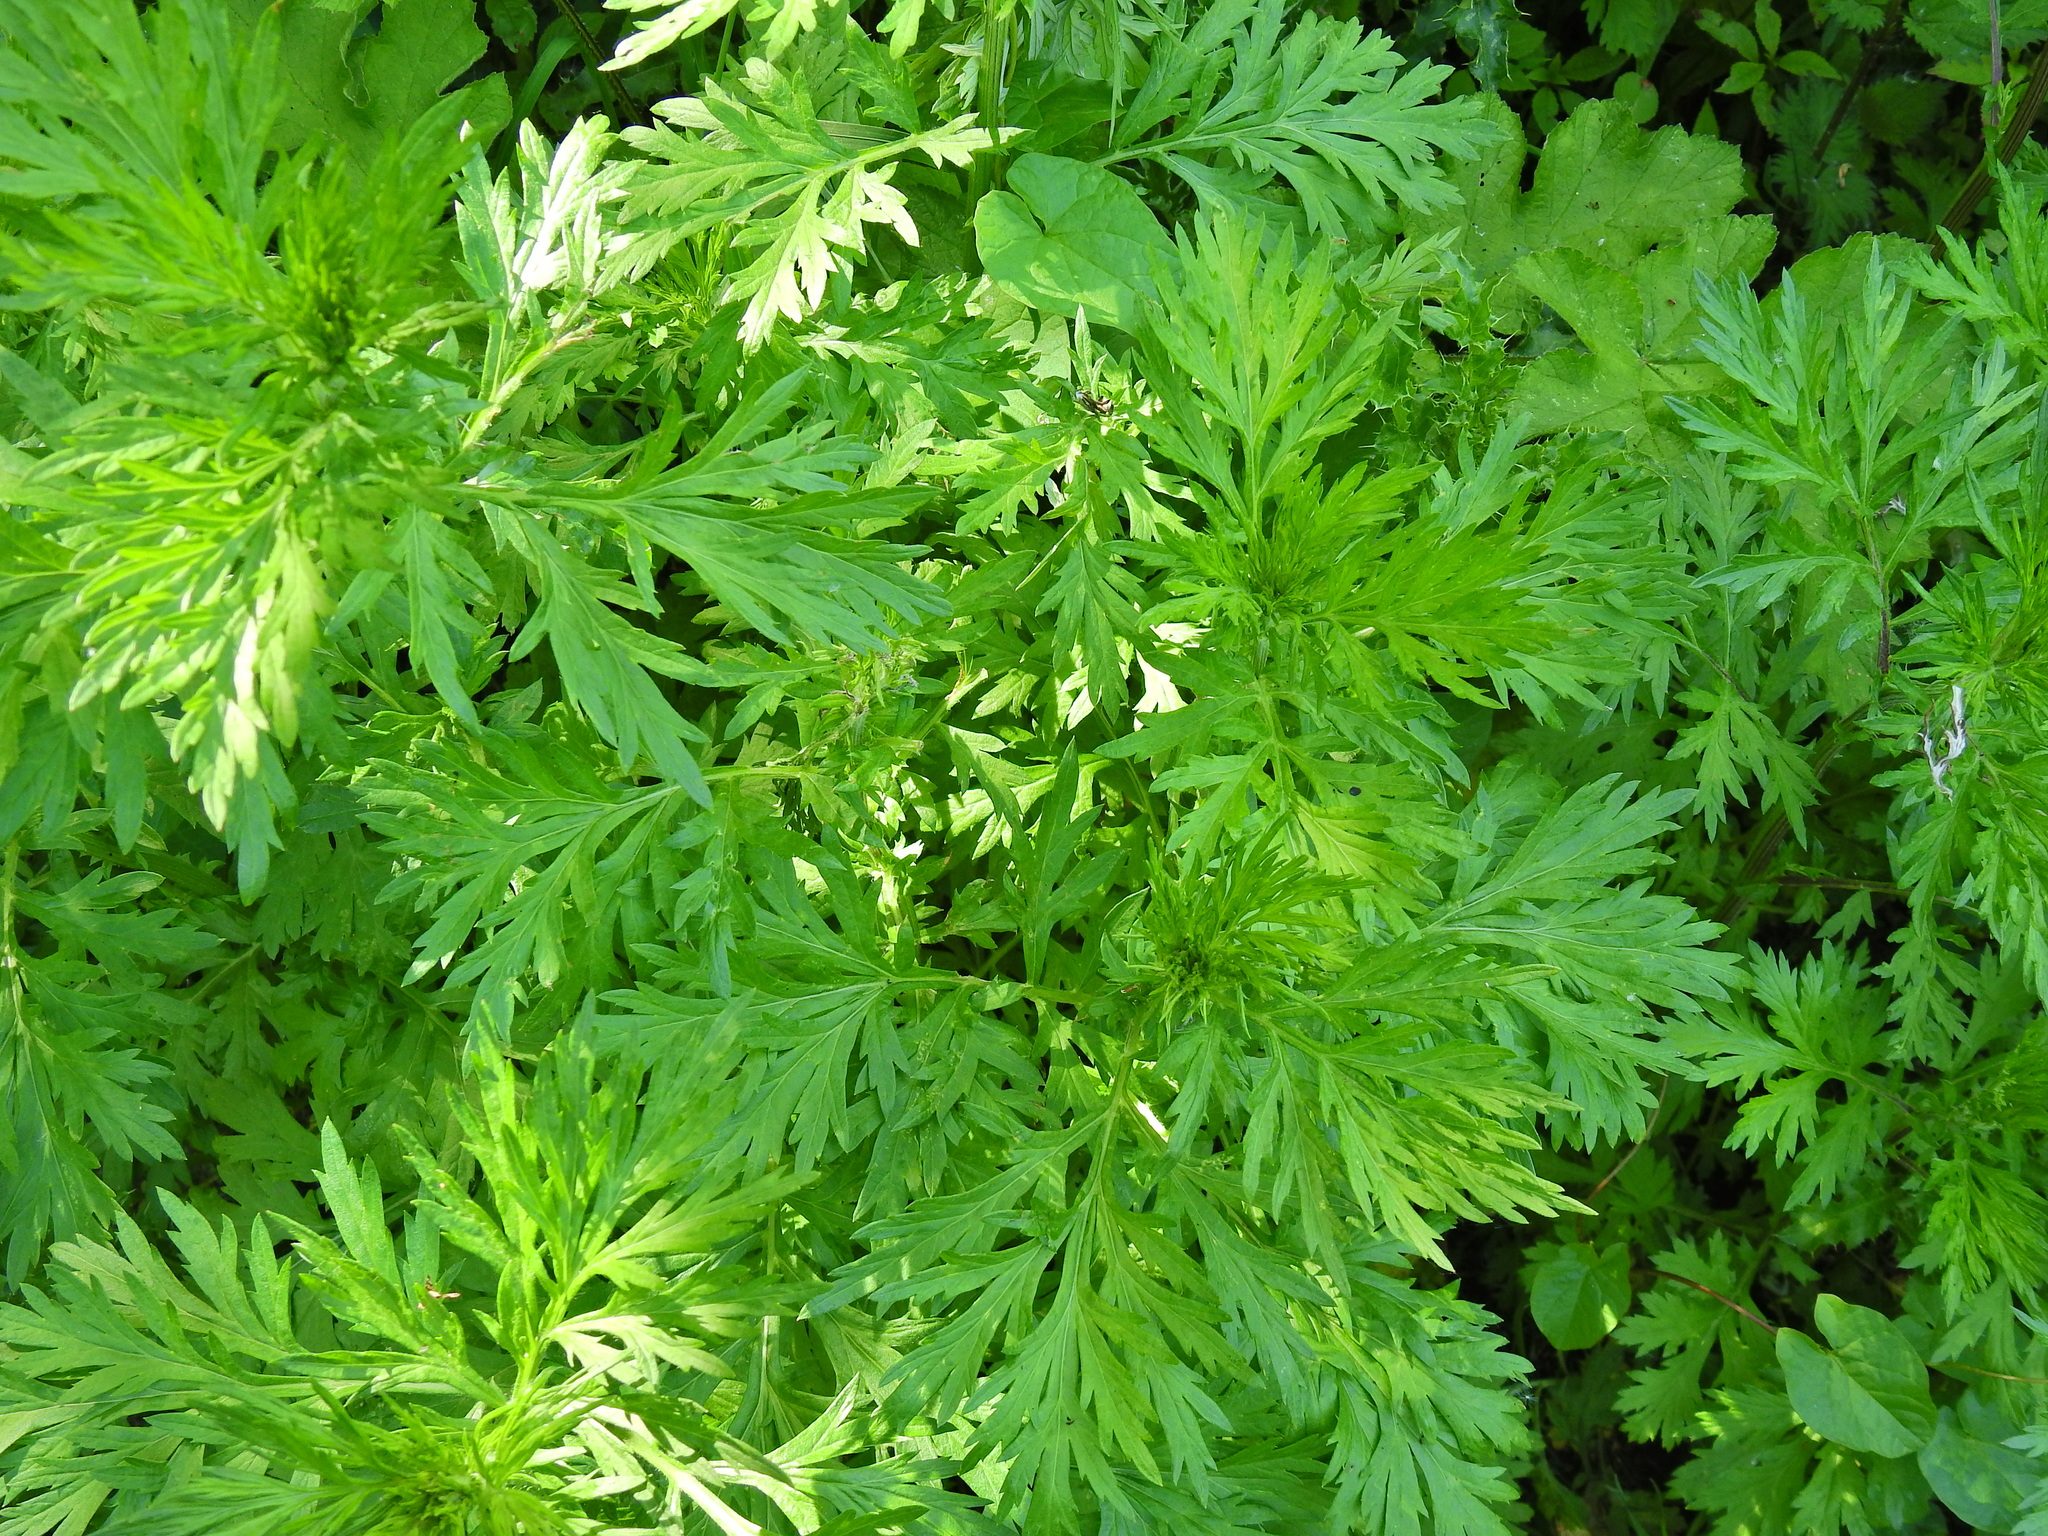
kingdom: Plantae
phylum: Tracheophyta
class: Magnoliopsida
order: Asterales
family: Asteraceae
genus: Artemisia
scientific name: Artemisia vulgaris
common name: Mugwort
